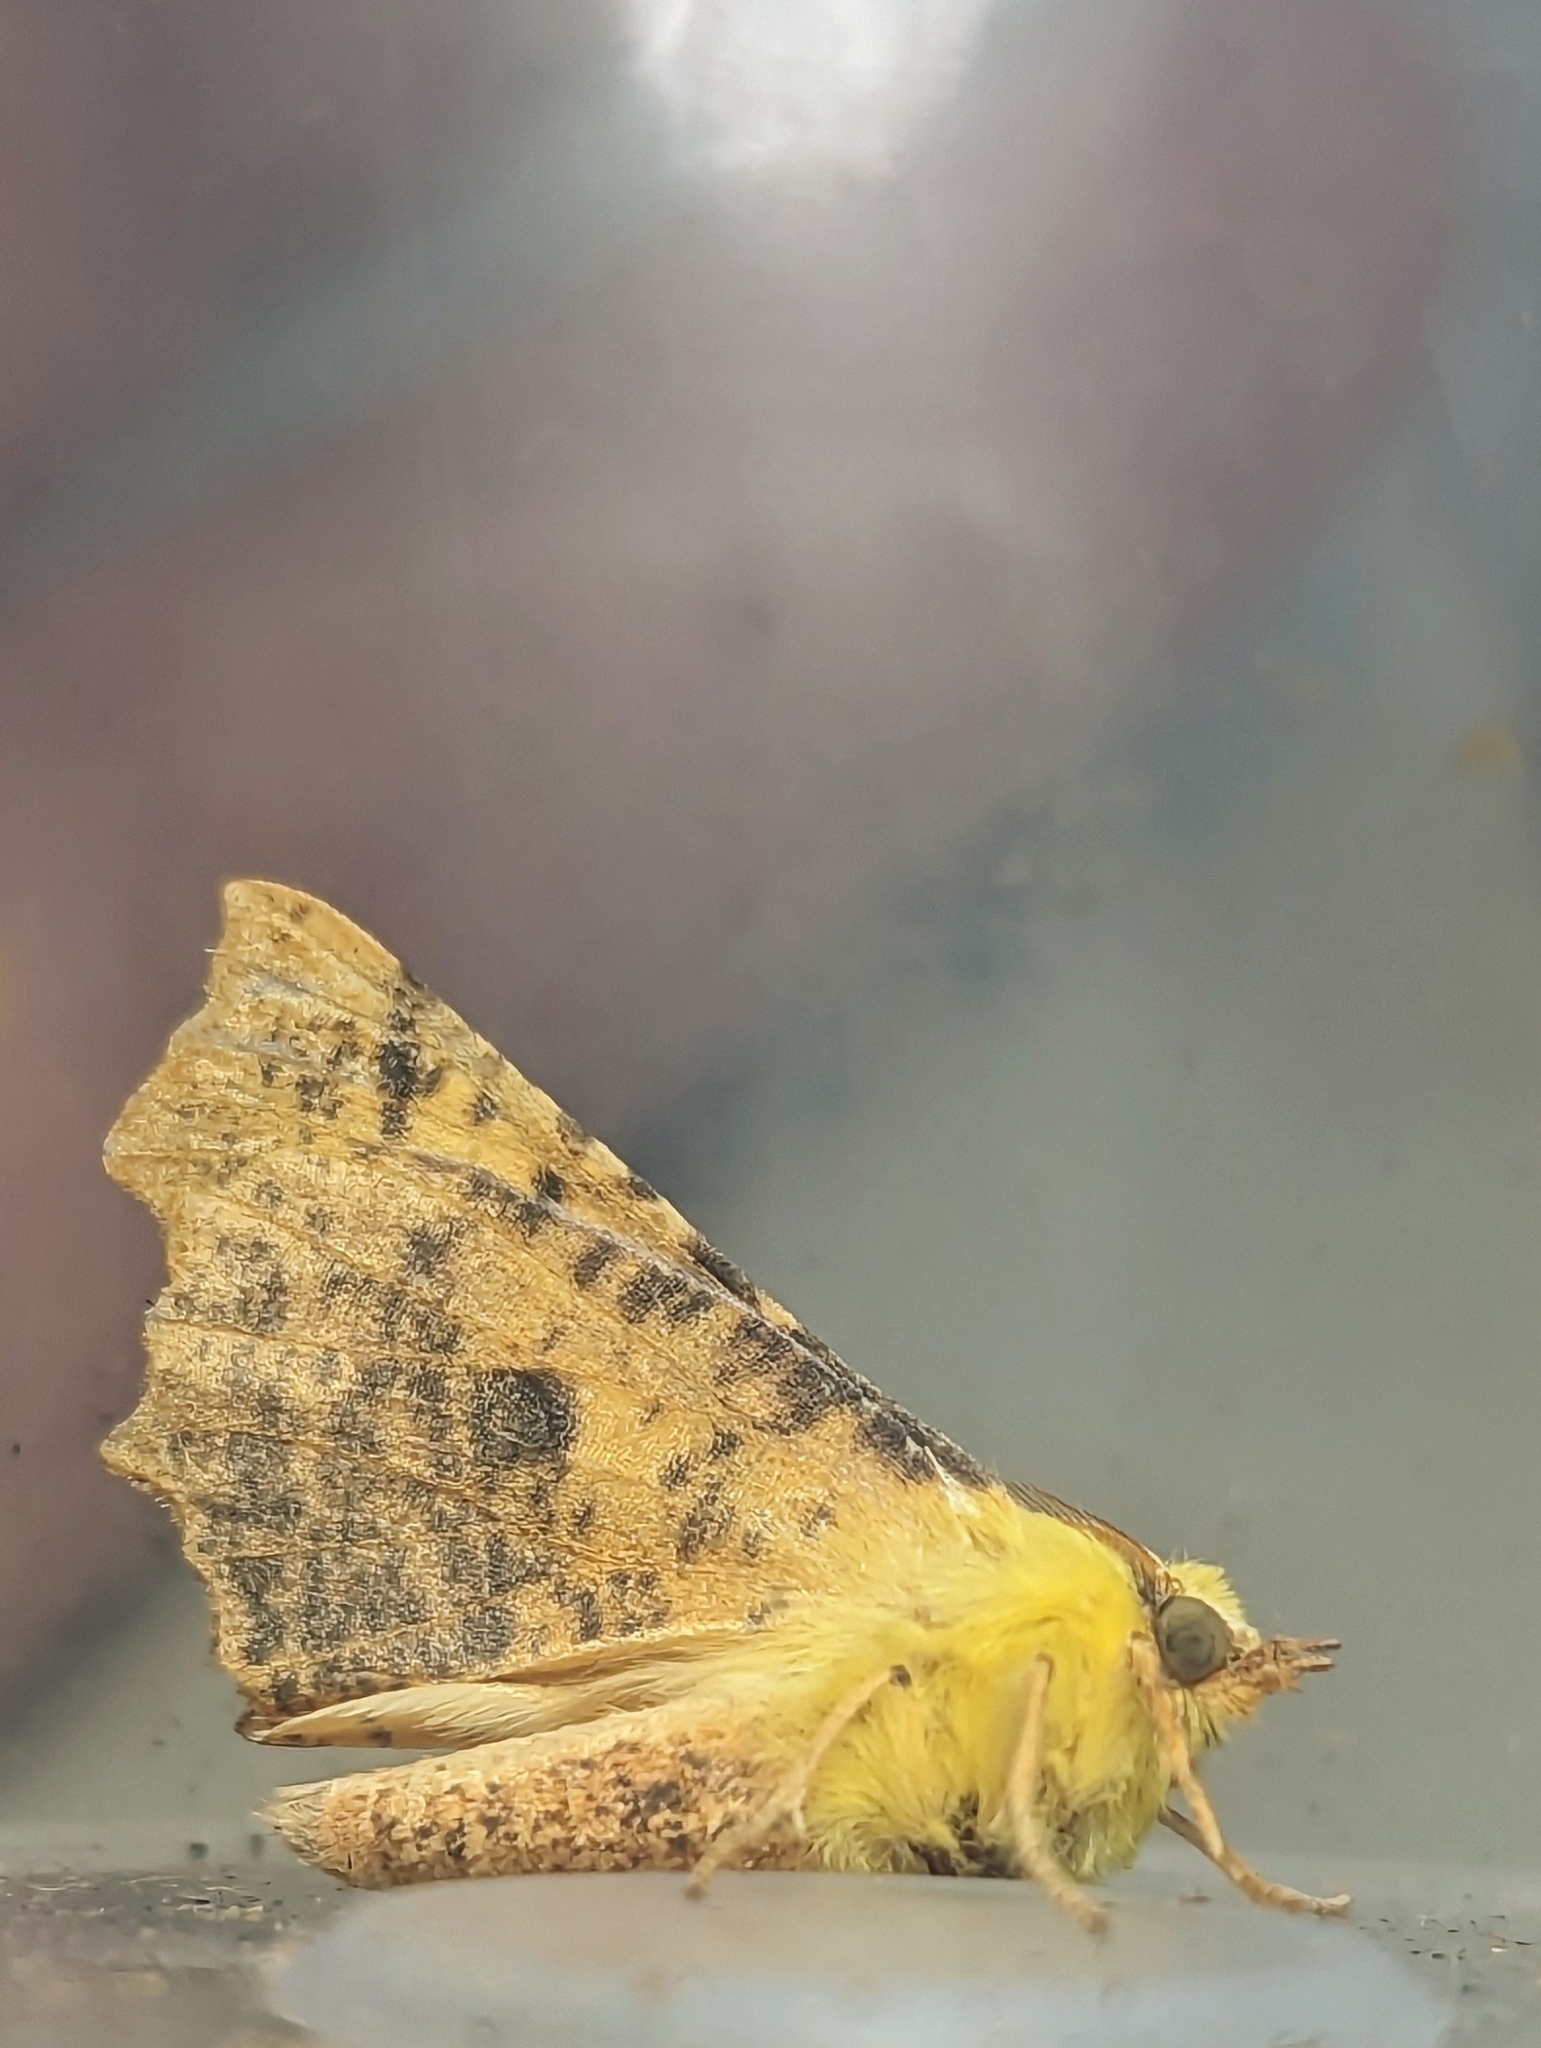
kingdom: Animalia
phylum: Arthropoda
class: Insecta
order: Lepidoptera
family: Geometridae
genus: Ennomos
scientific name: Ennomos alniaria
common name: Canary-shouldered thorn
